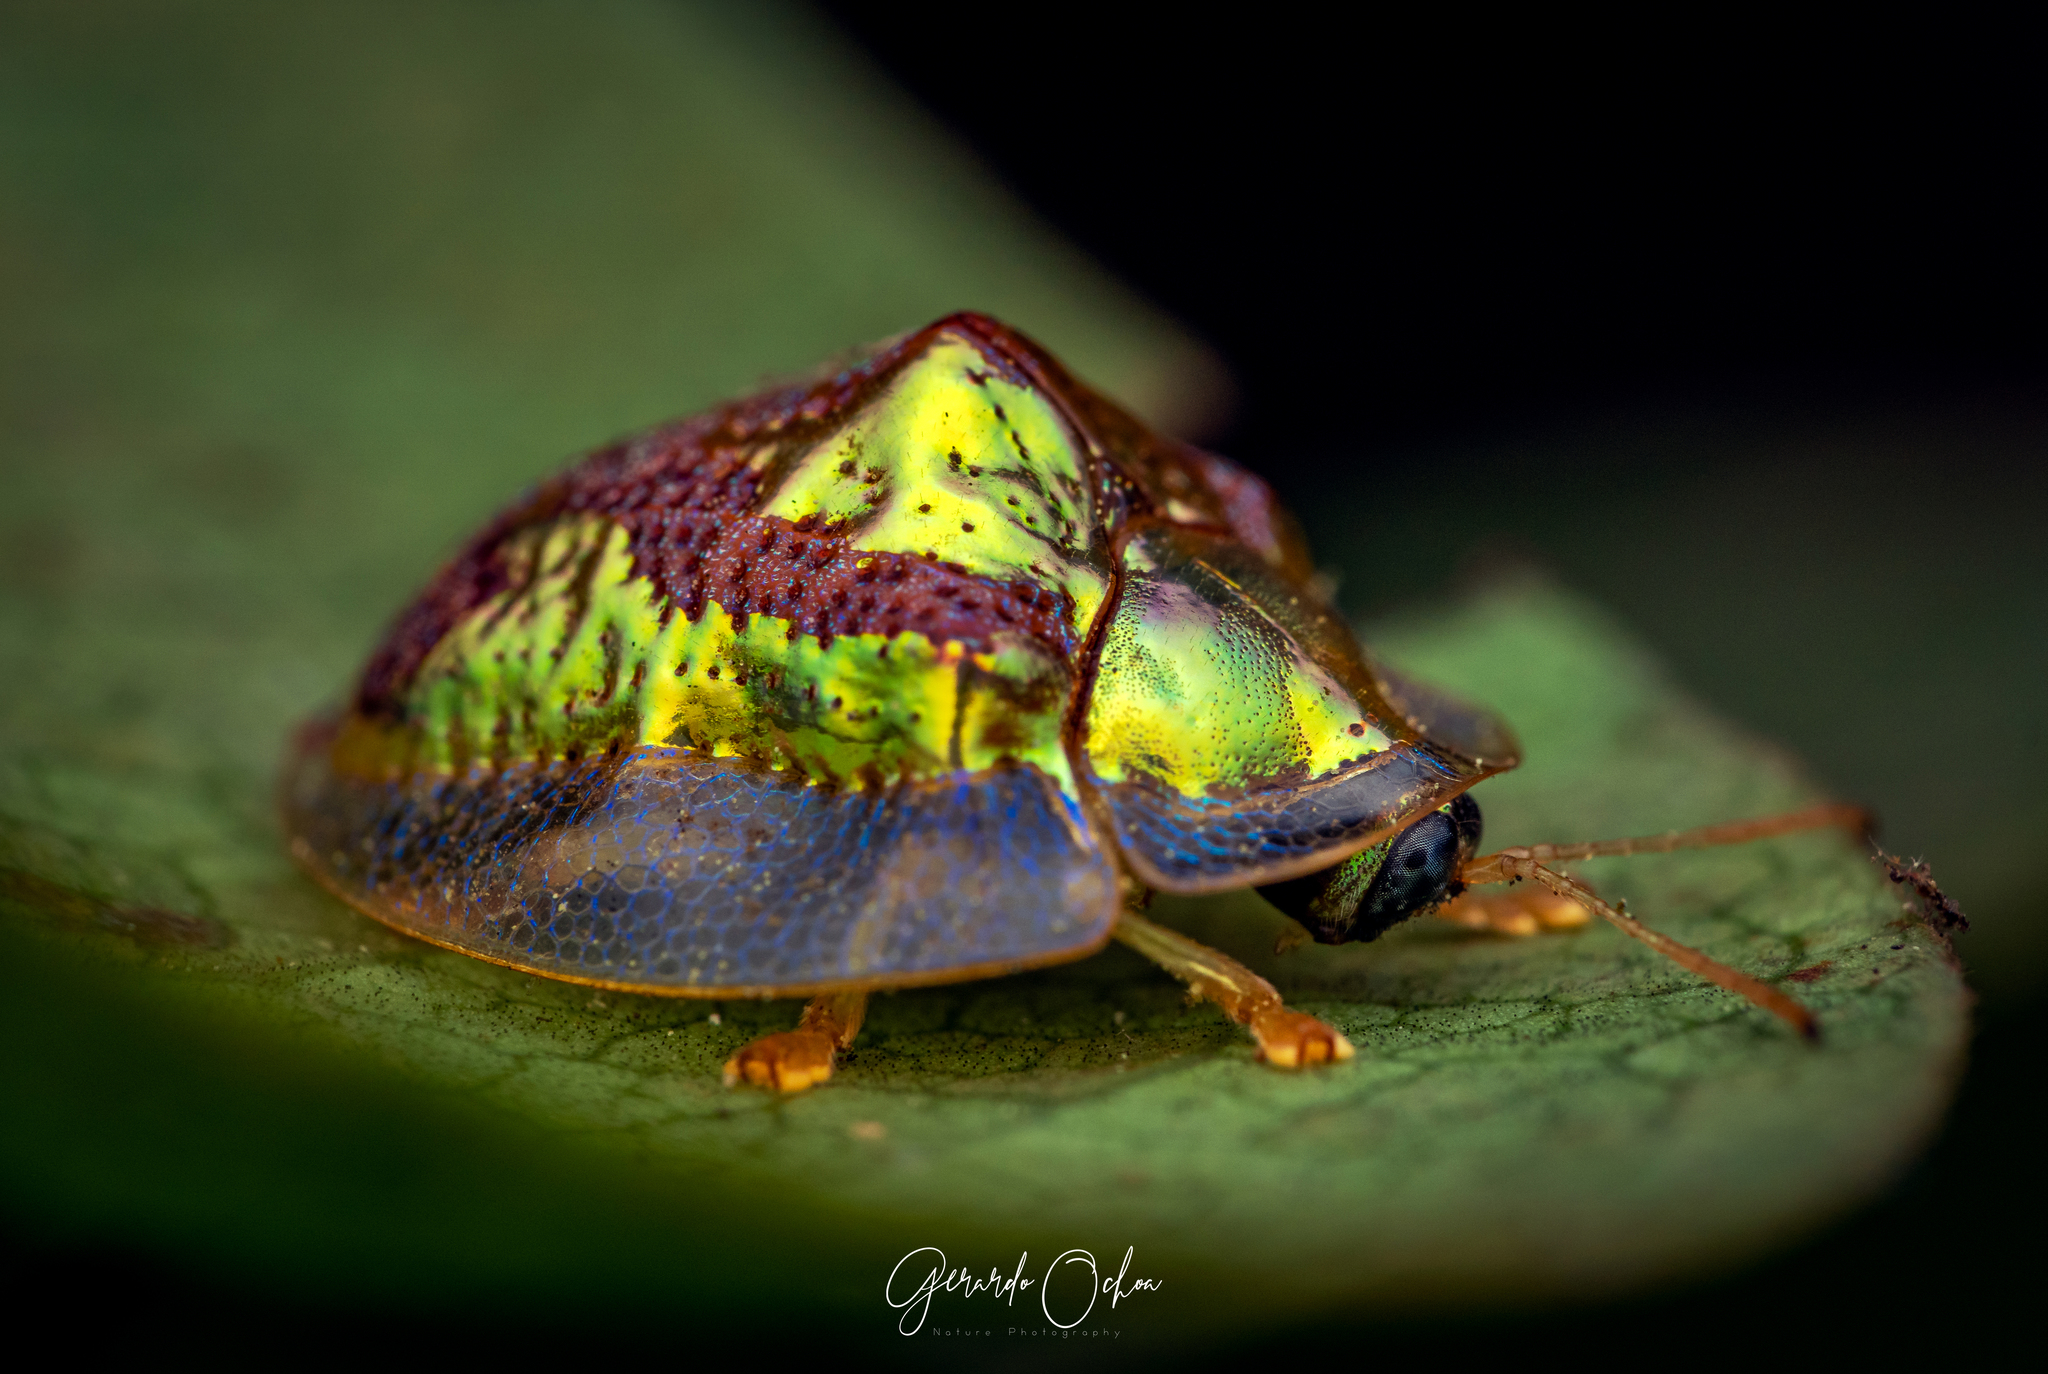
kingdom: Animalia
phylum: Arthropoda
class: Insecta
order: Coleoptera
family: Chrysomelidae
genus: Coptocycla
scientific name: Coptocycla leprosa
